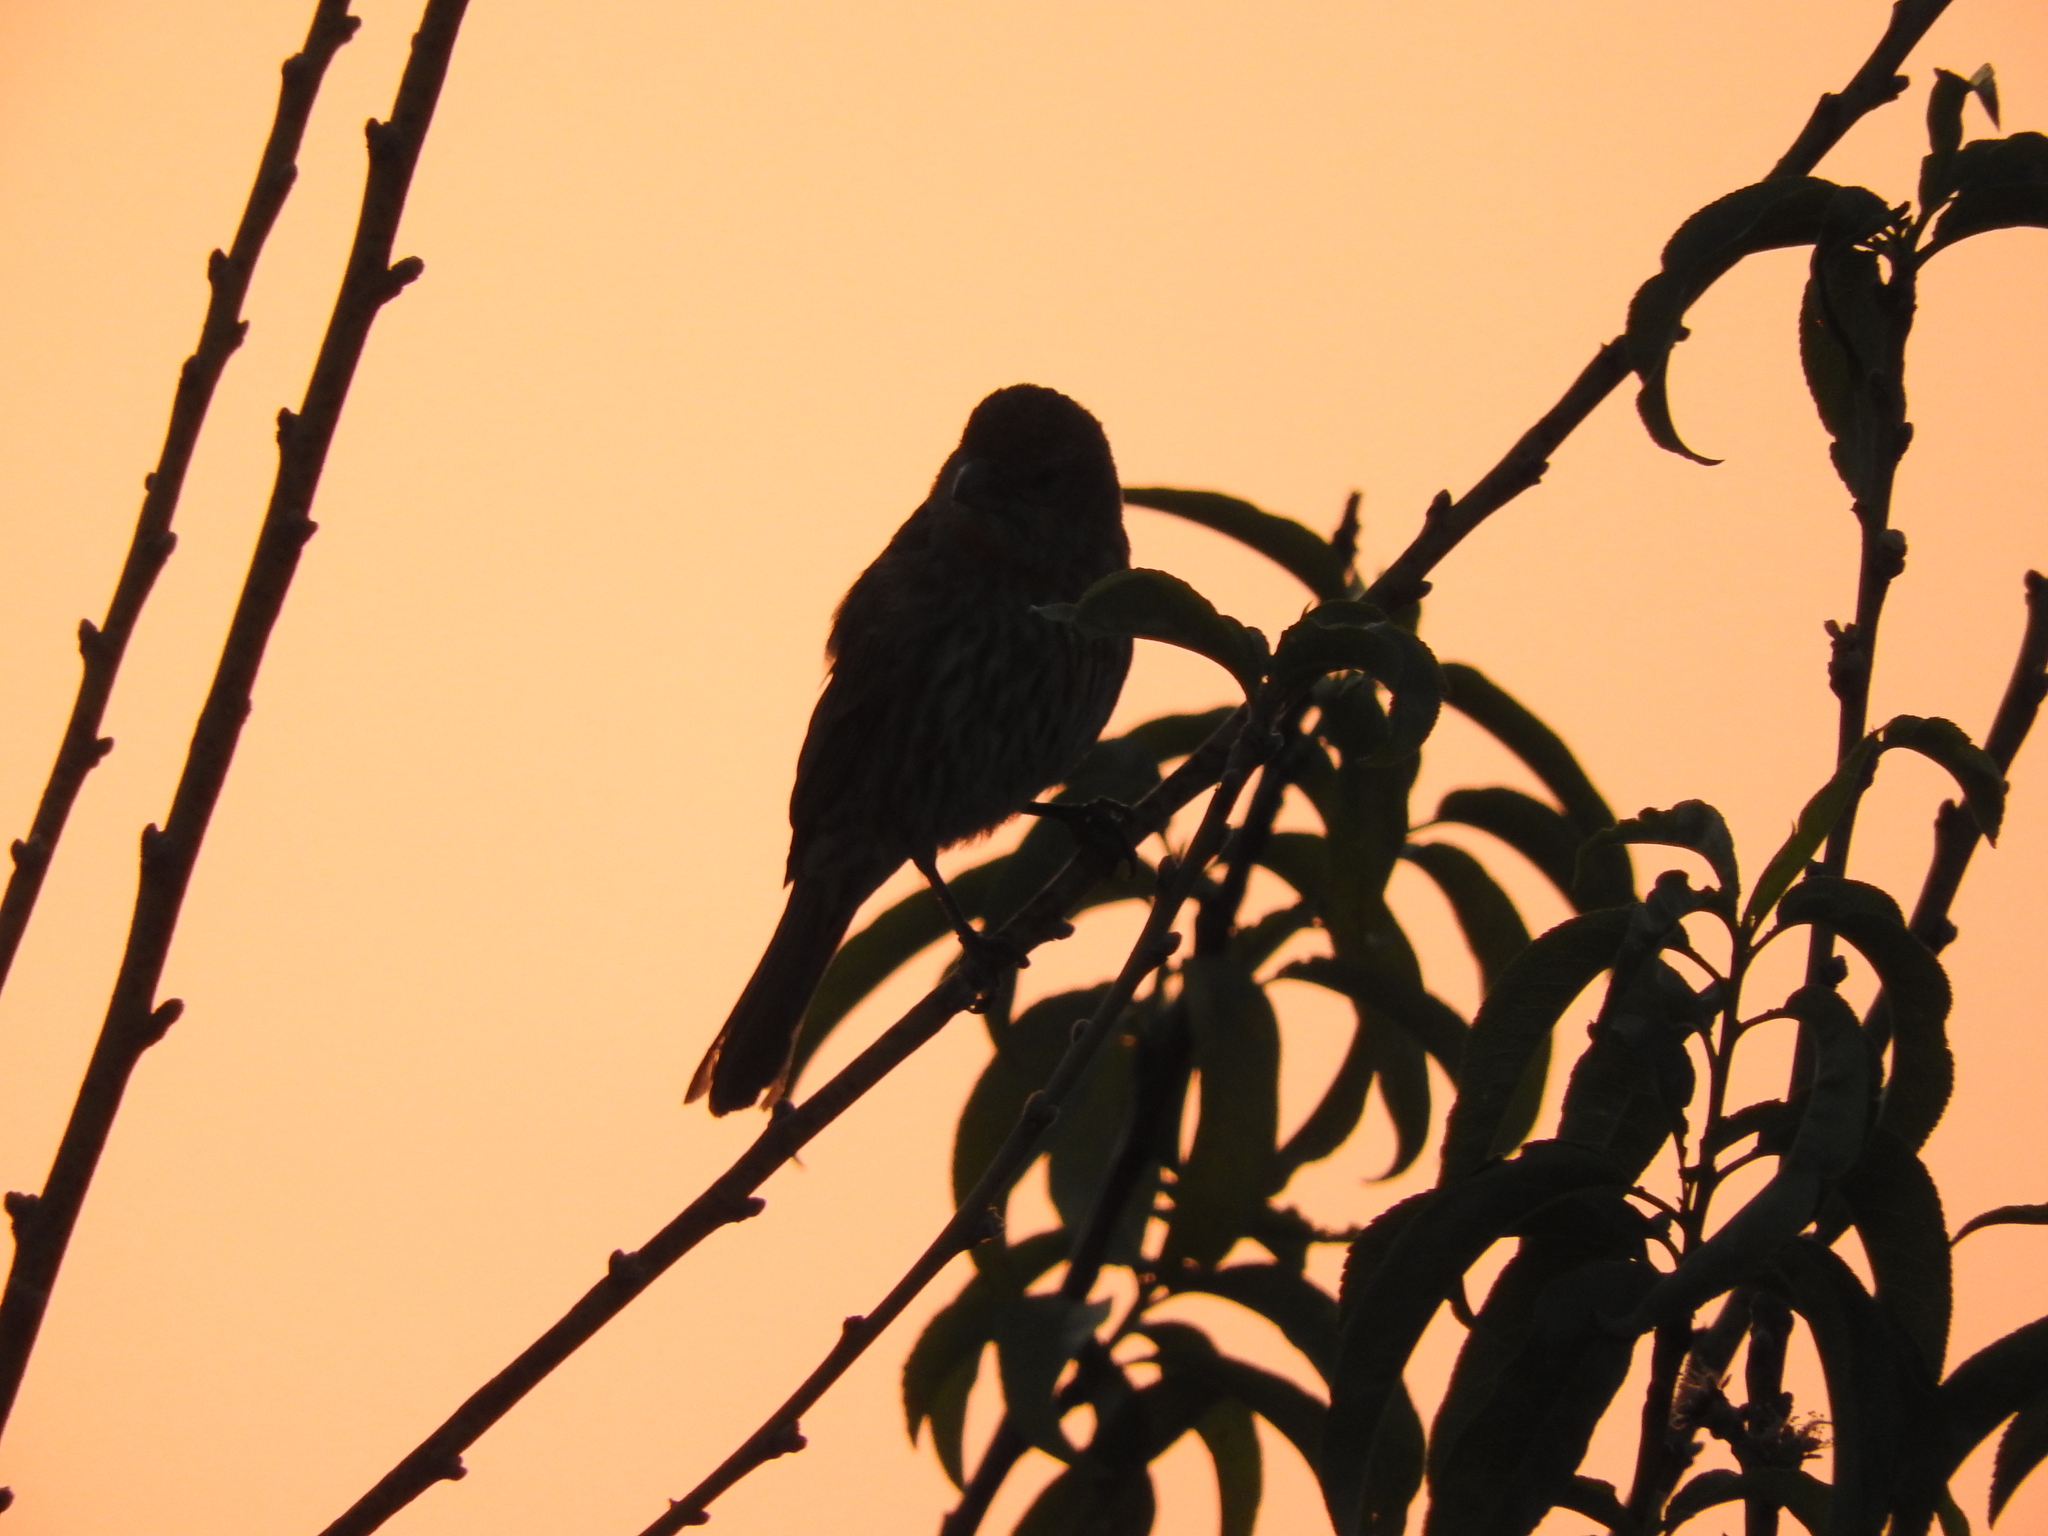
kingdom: Animalia
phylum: Chordata
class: Aves
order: Passeriformes
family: Fringillidae
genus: Haemorhous
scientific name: Haemorhous mexicanus
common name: House finch
